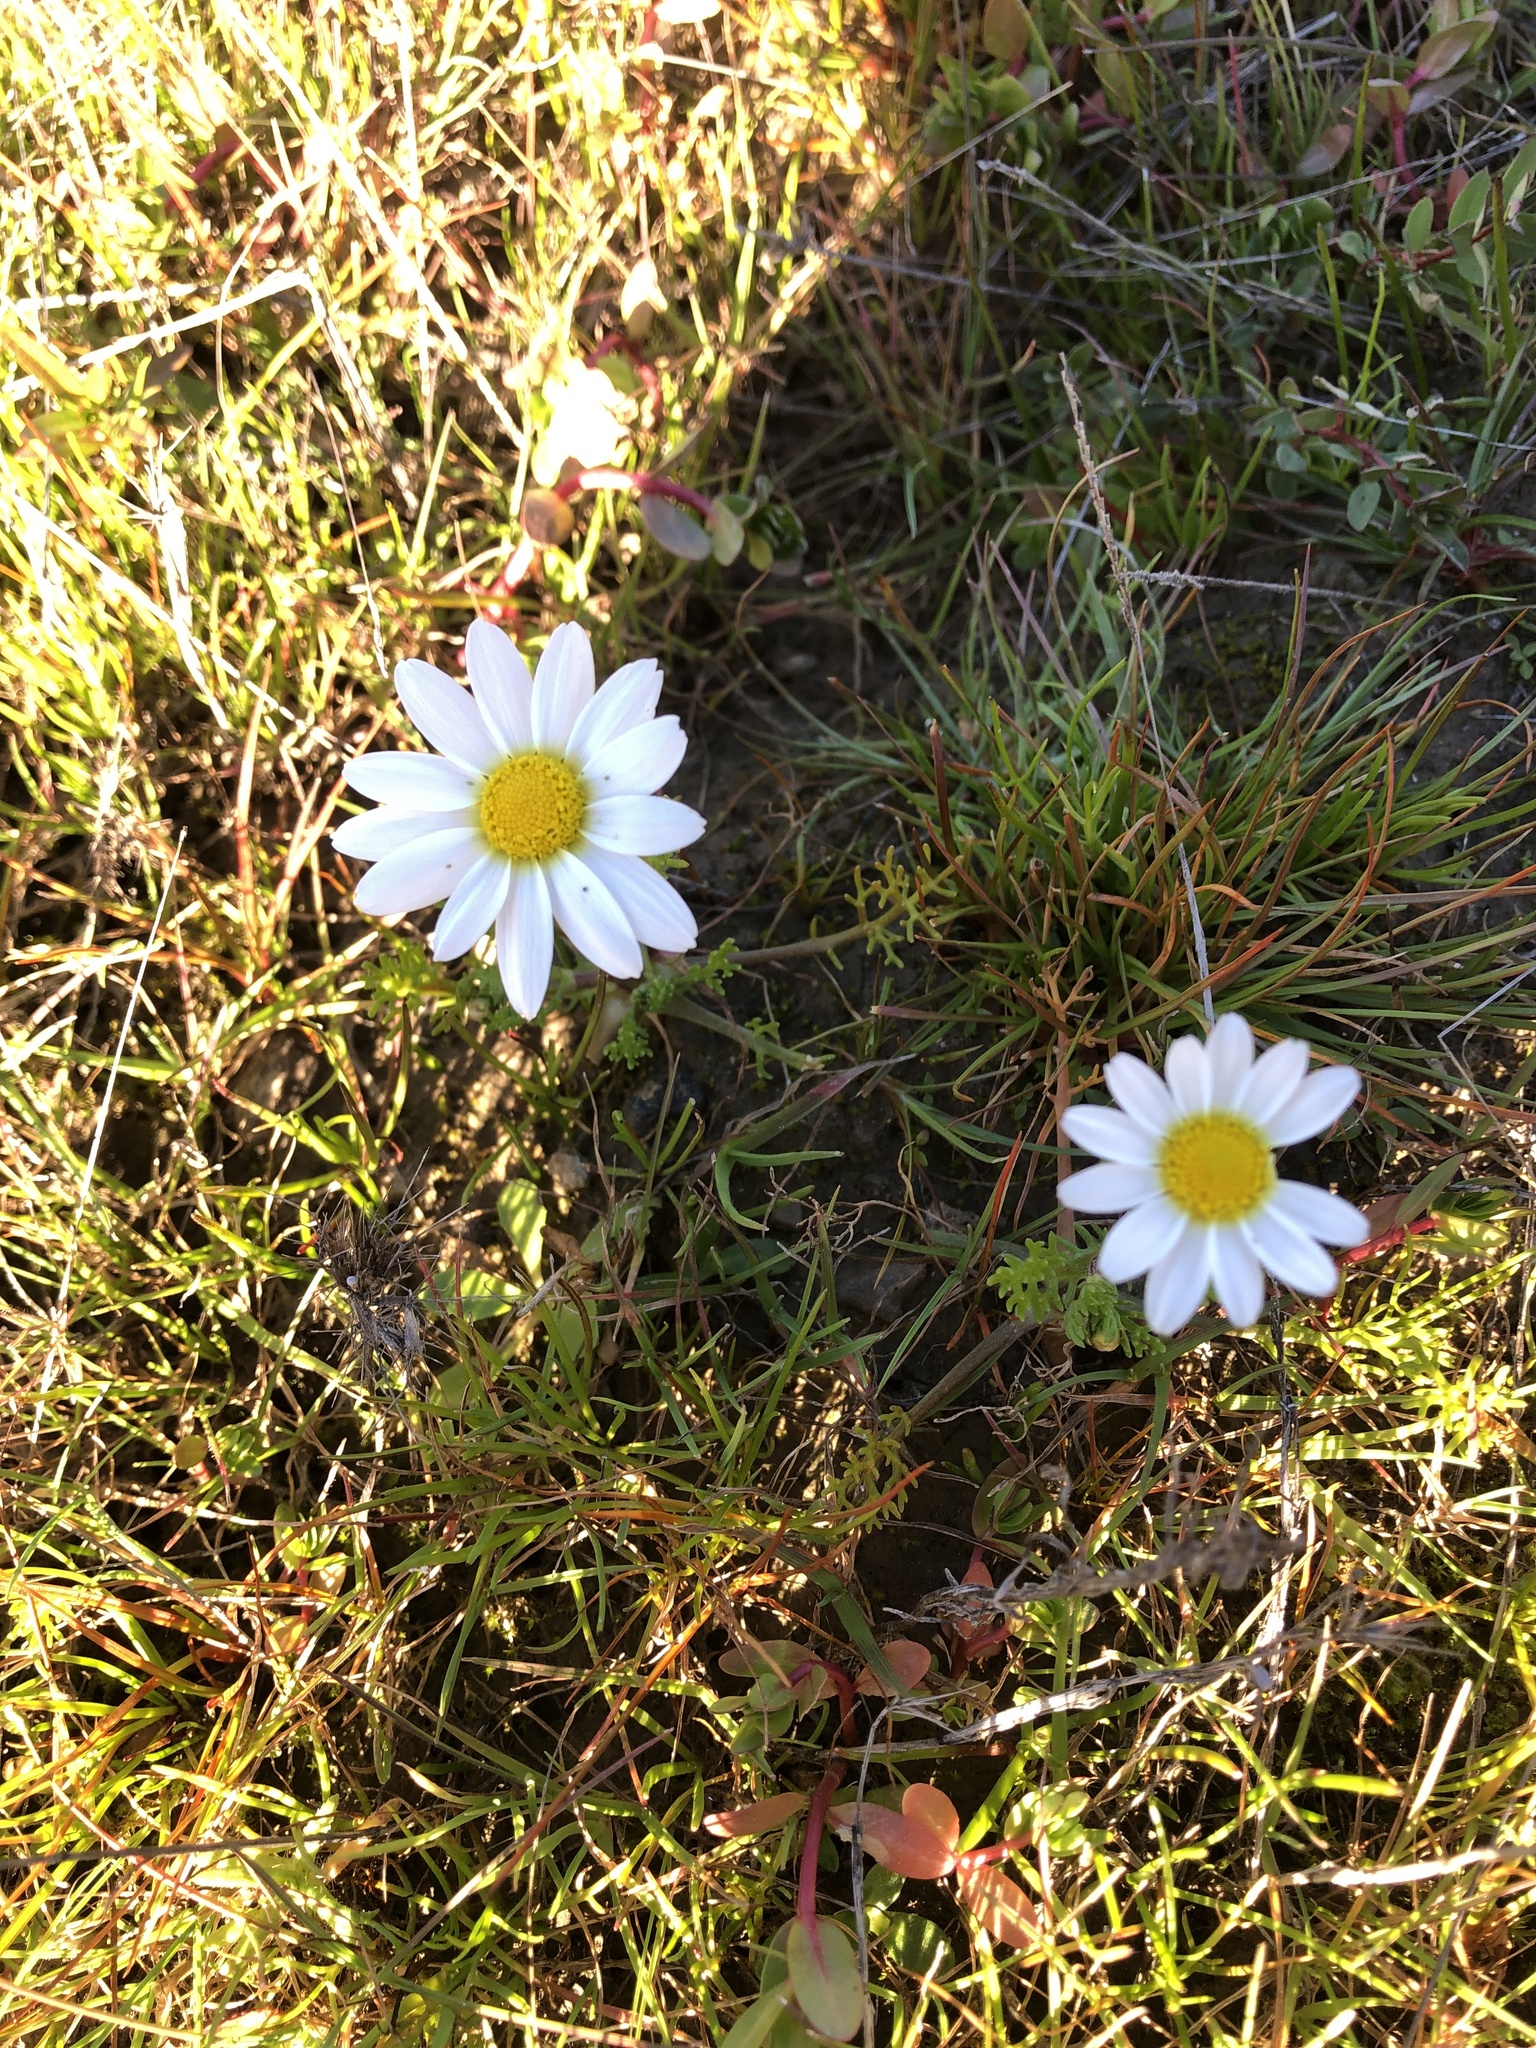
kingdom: Plantae
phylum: Tracheophyta
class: Magnoliopsida
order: Asterales
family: Asteraceae
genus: Anthemis
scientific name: Anthemis cotula
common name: Stinking chamomile
